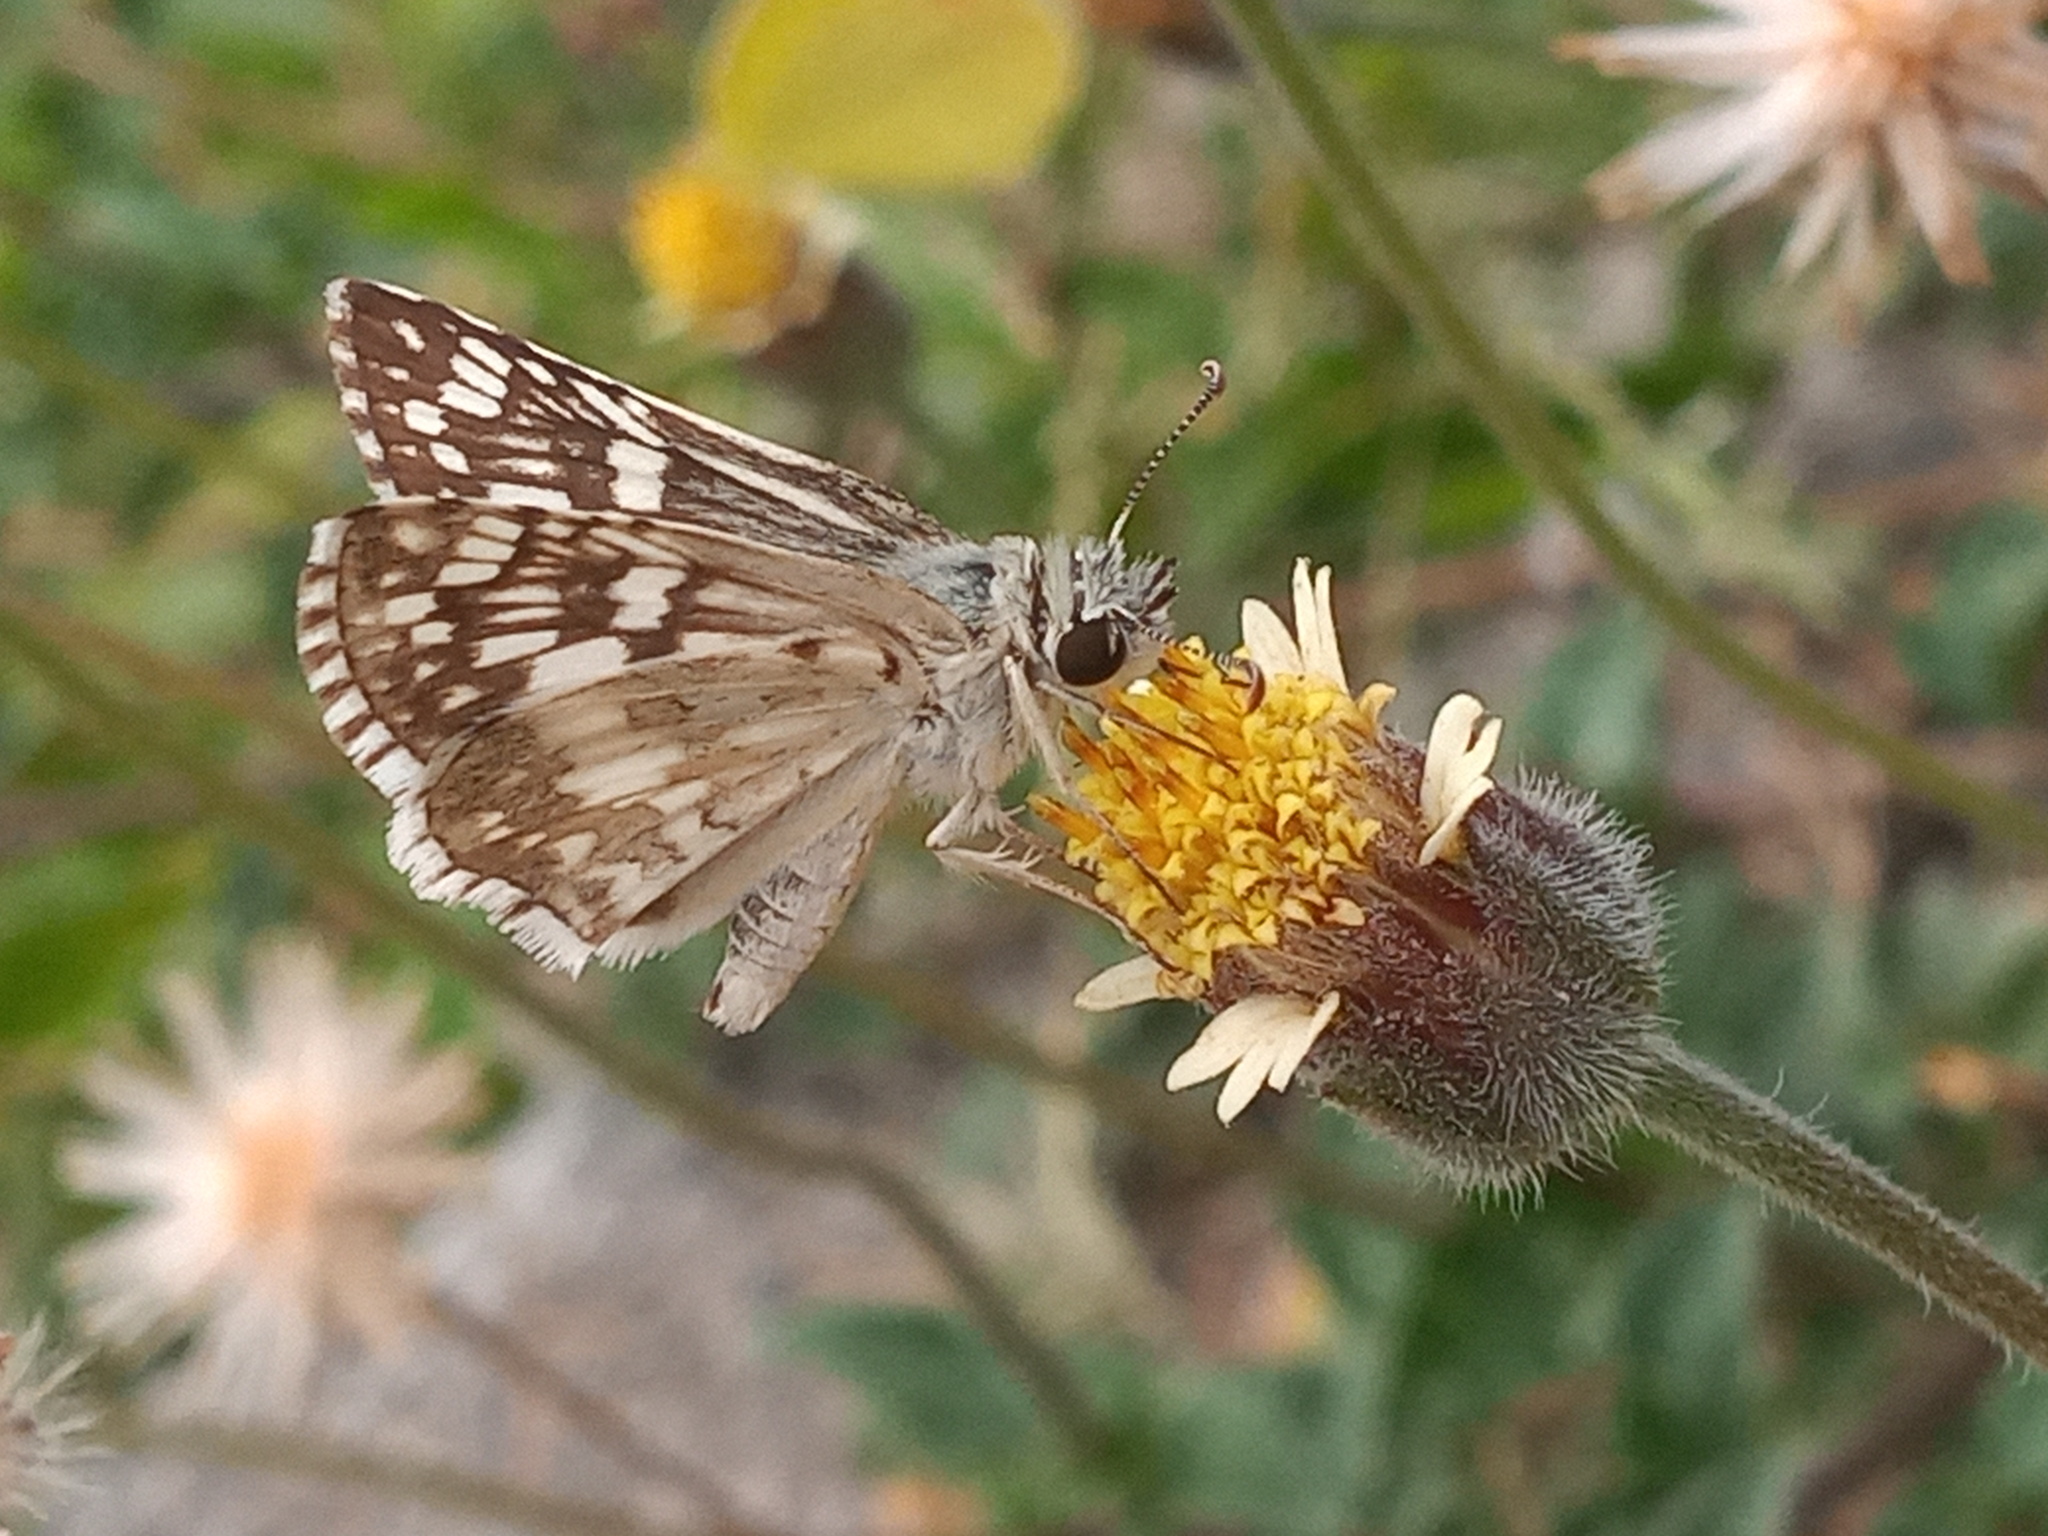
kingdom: Animalia
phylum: Arthropoda
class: Insecta
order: Lepidoptera
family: Hesperiidae
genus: Burnsius
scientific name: Burnsius albezens
